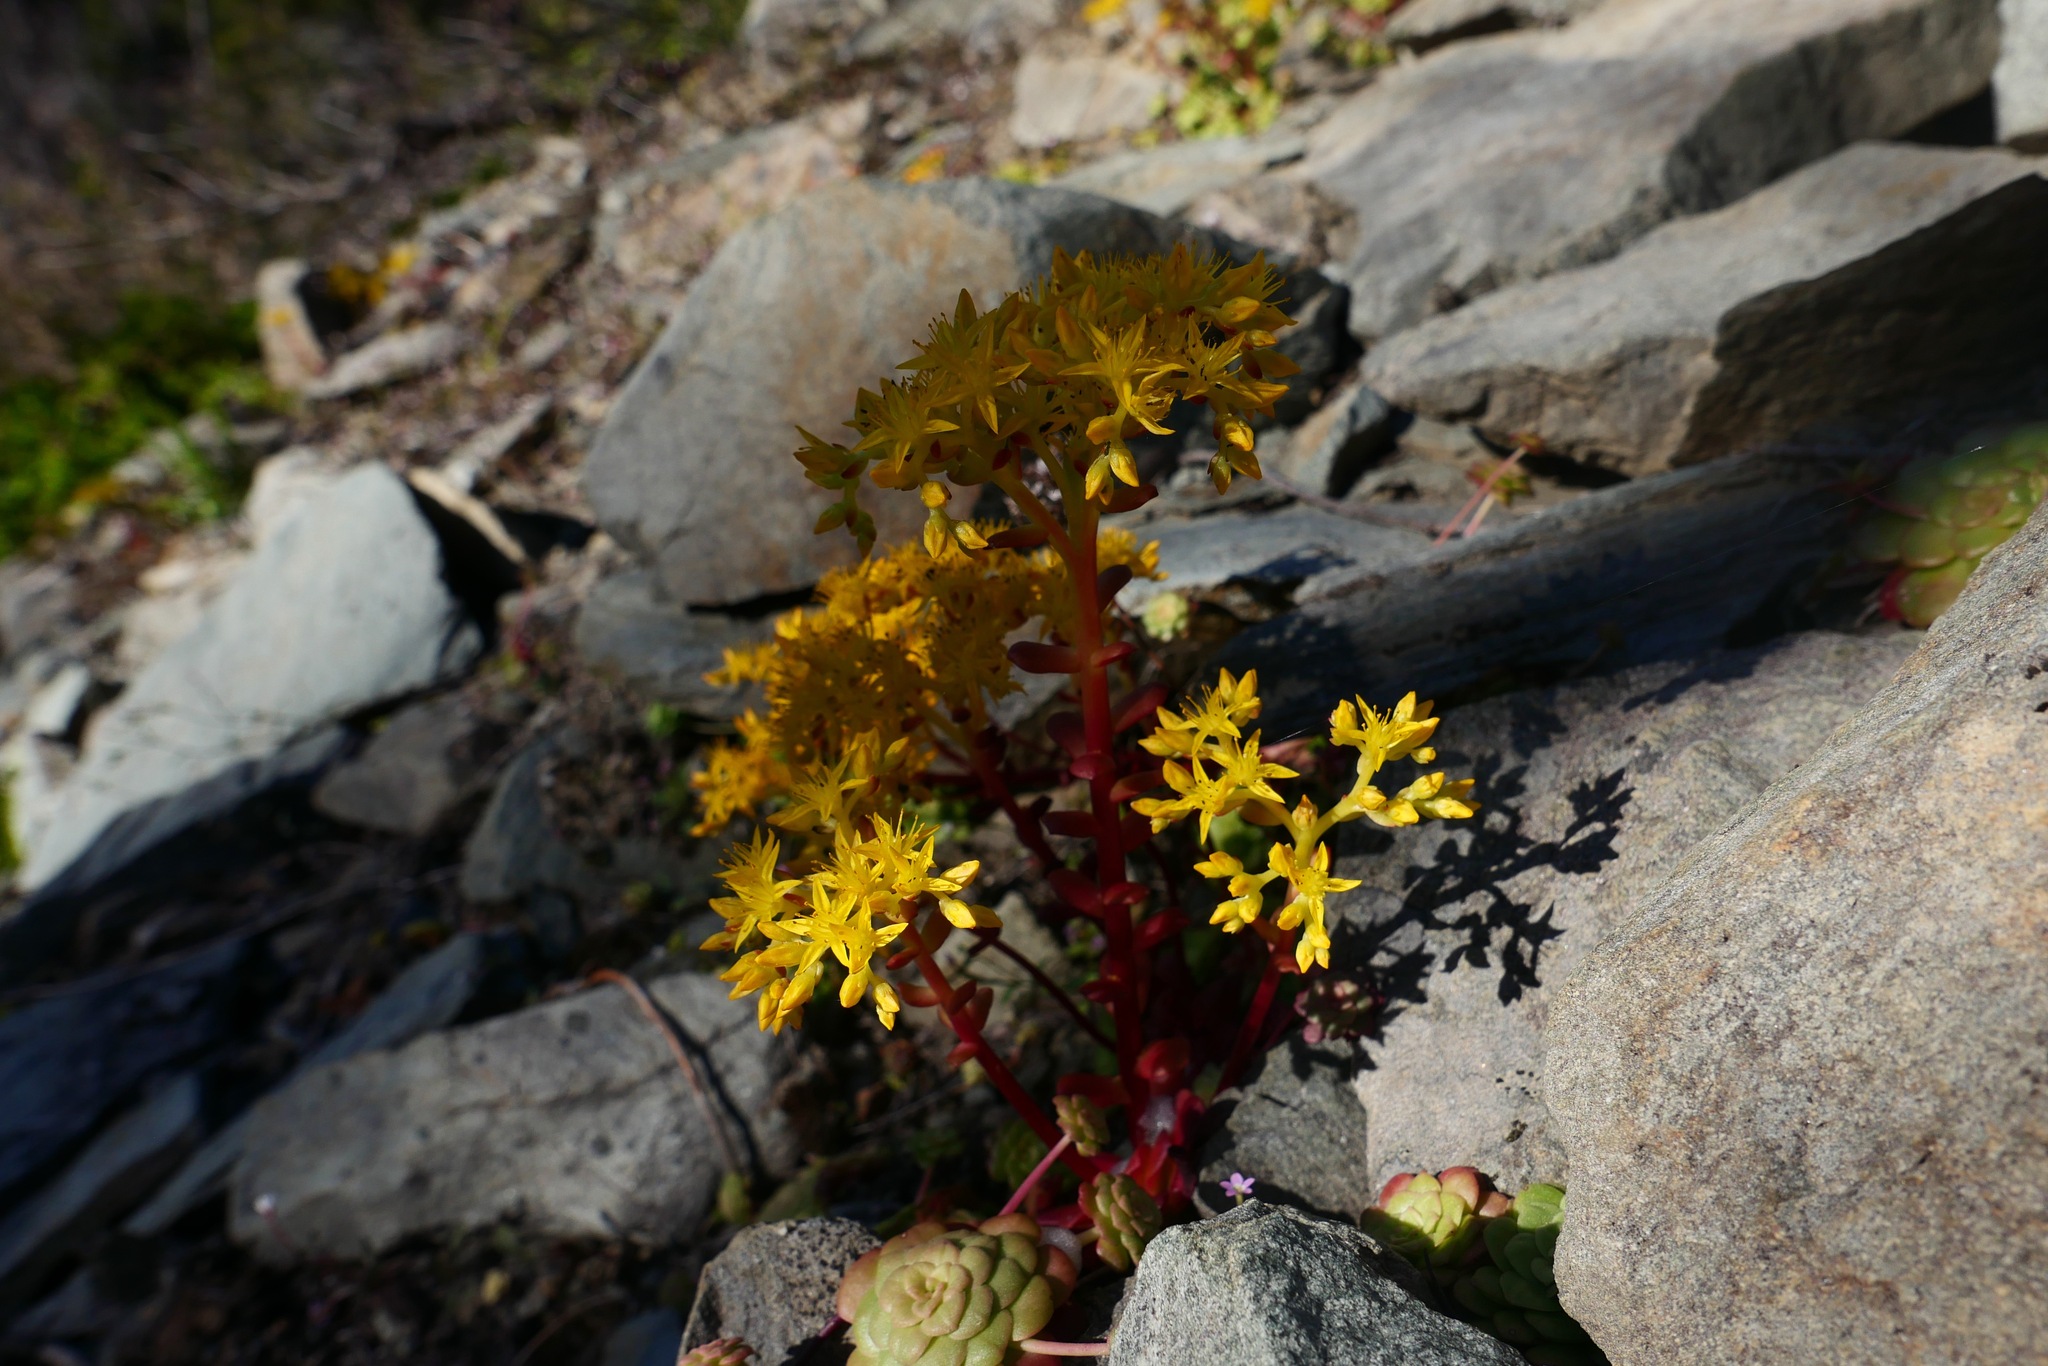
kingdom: Plantae
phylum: Tracheophyta
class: Magnoliopsida
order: Saxifragales
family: Crassulaceae
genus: Sedum
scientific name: Sedum spathulifolium
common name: Colorado stonecrop
